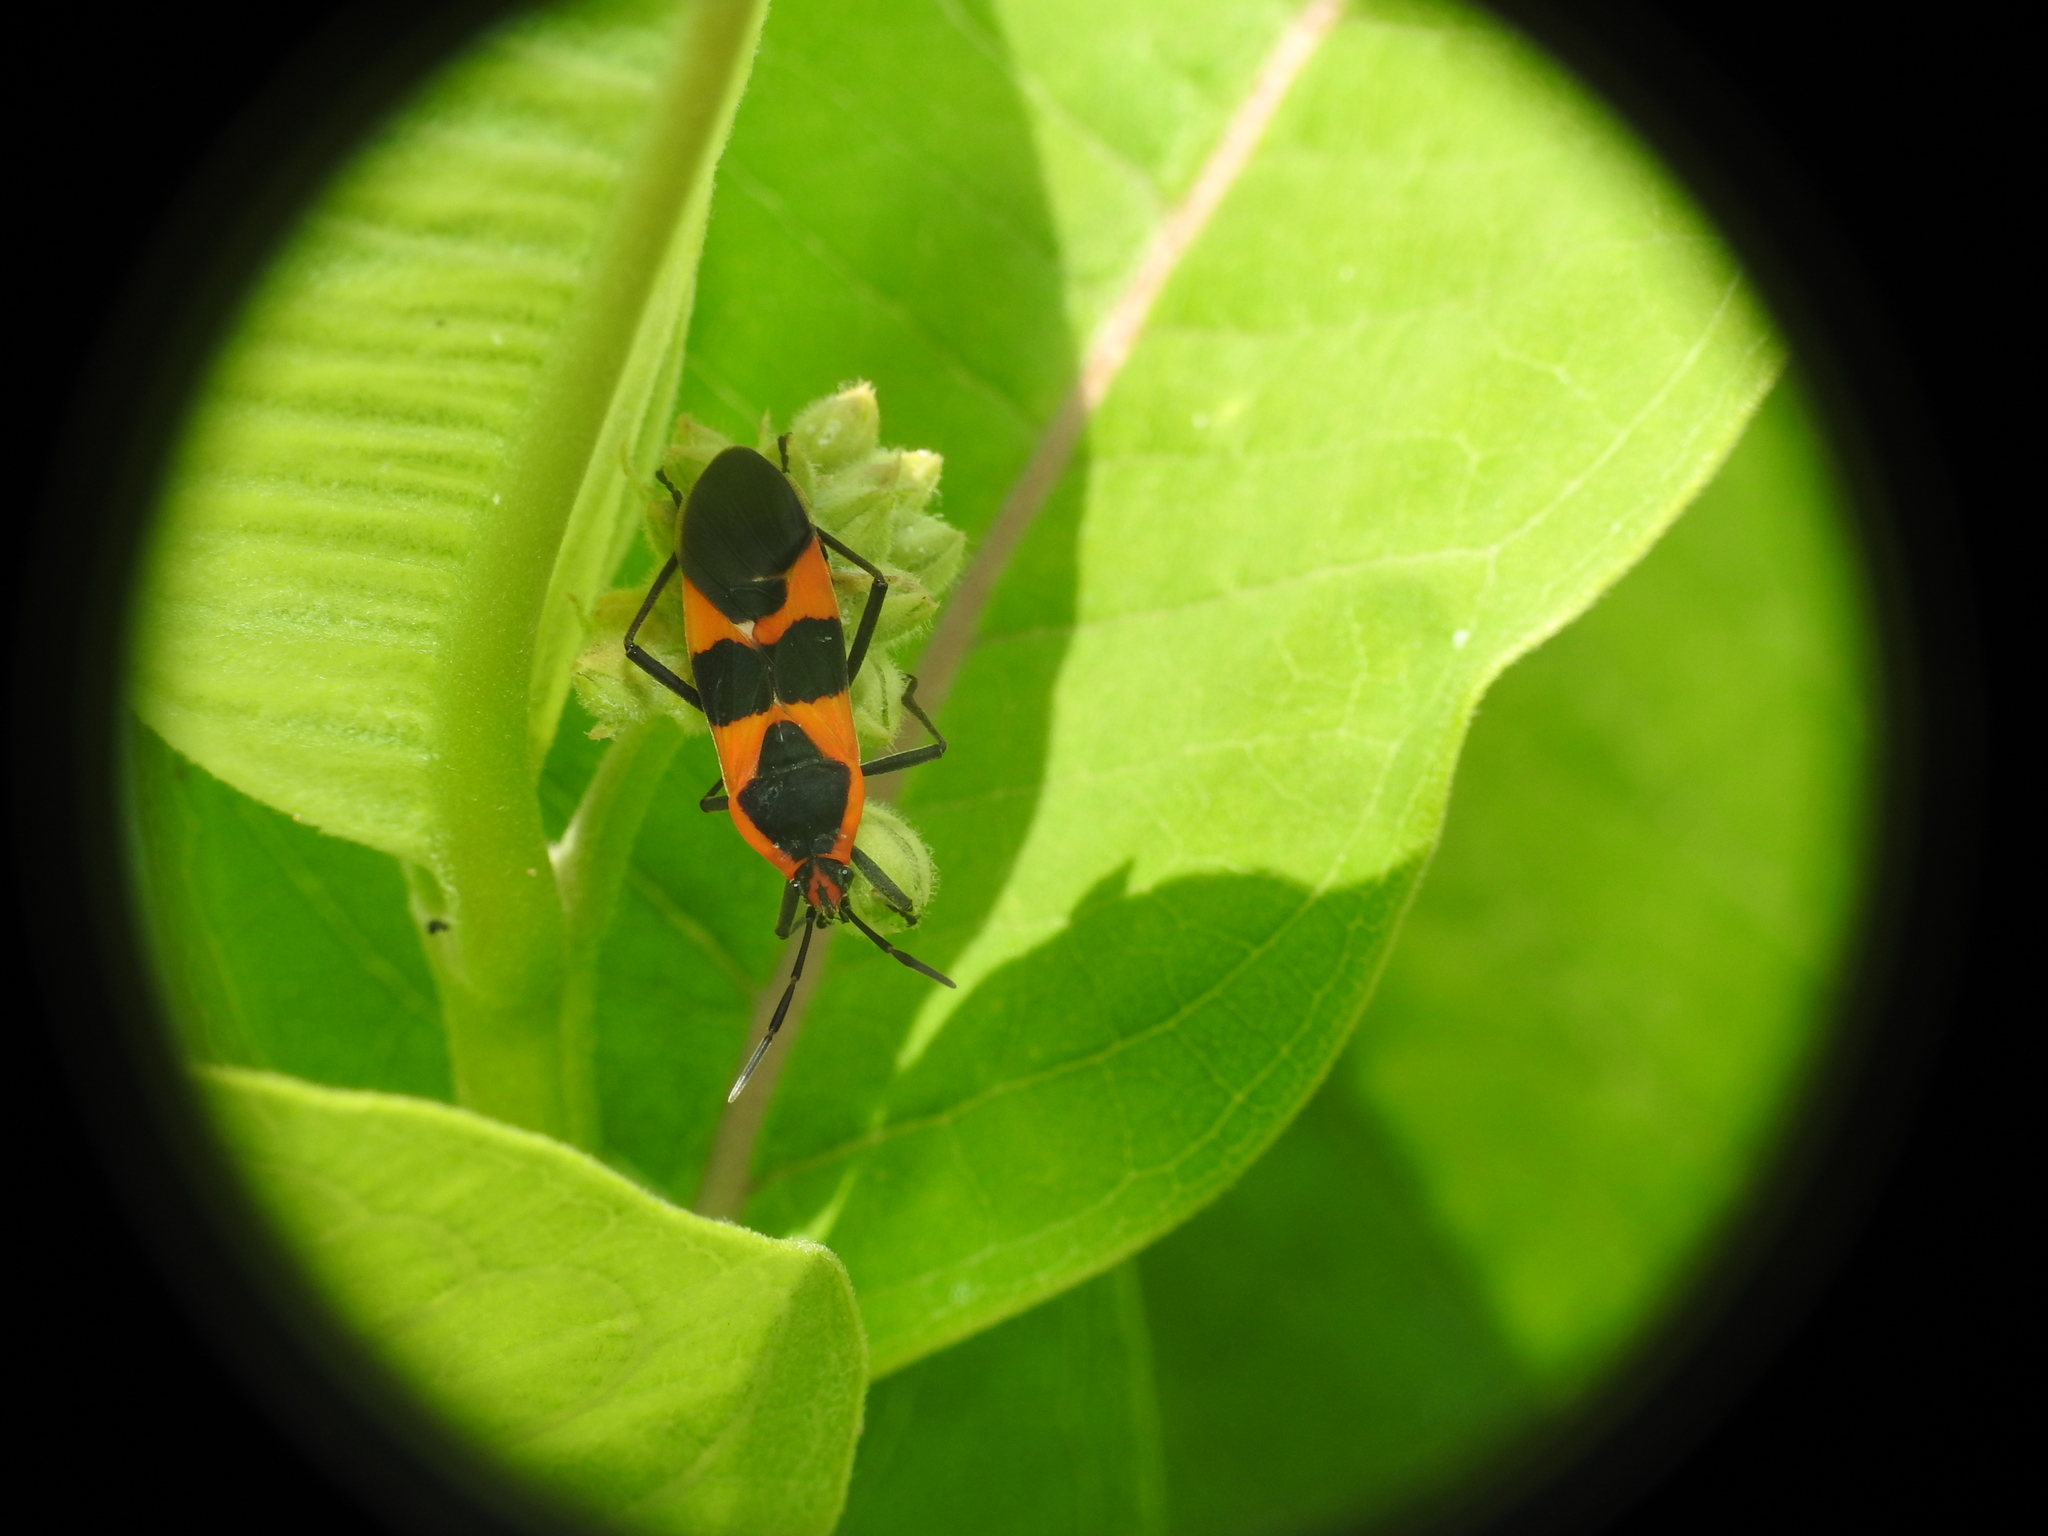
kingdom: Animalia
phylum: Arthropoda
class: Insecta
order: Hemiptera
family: Lygaeidae
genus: Oncopeltus
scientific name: Oncopeltus fasciatus
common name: Large milkweed bug
